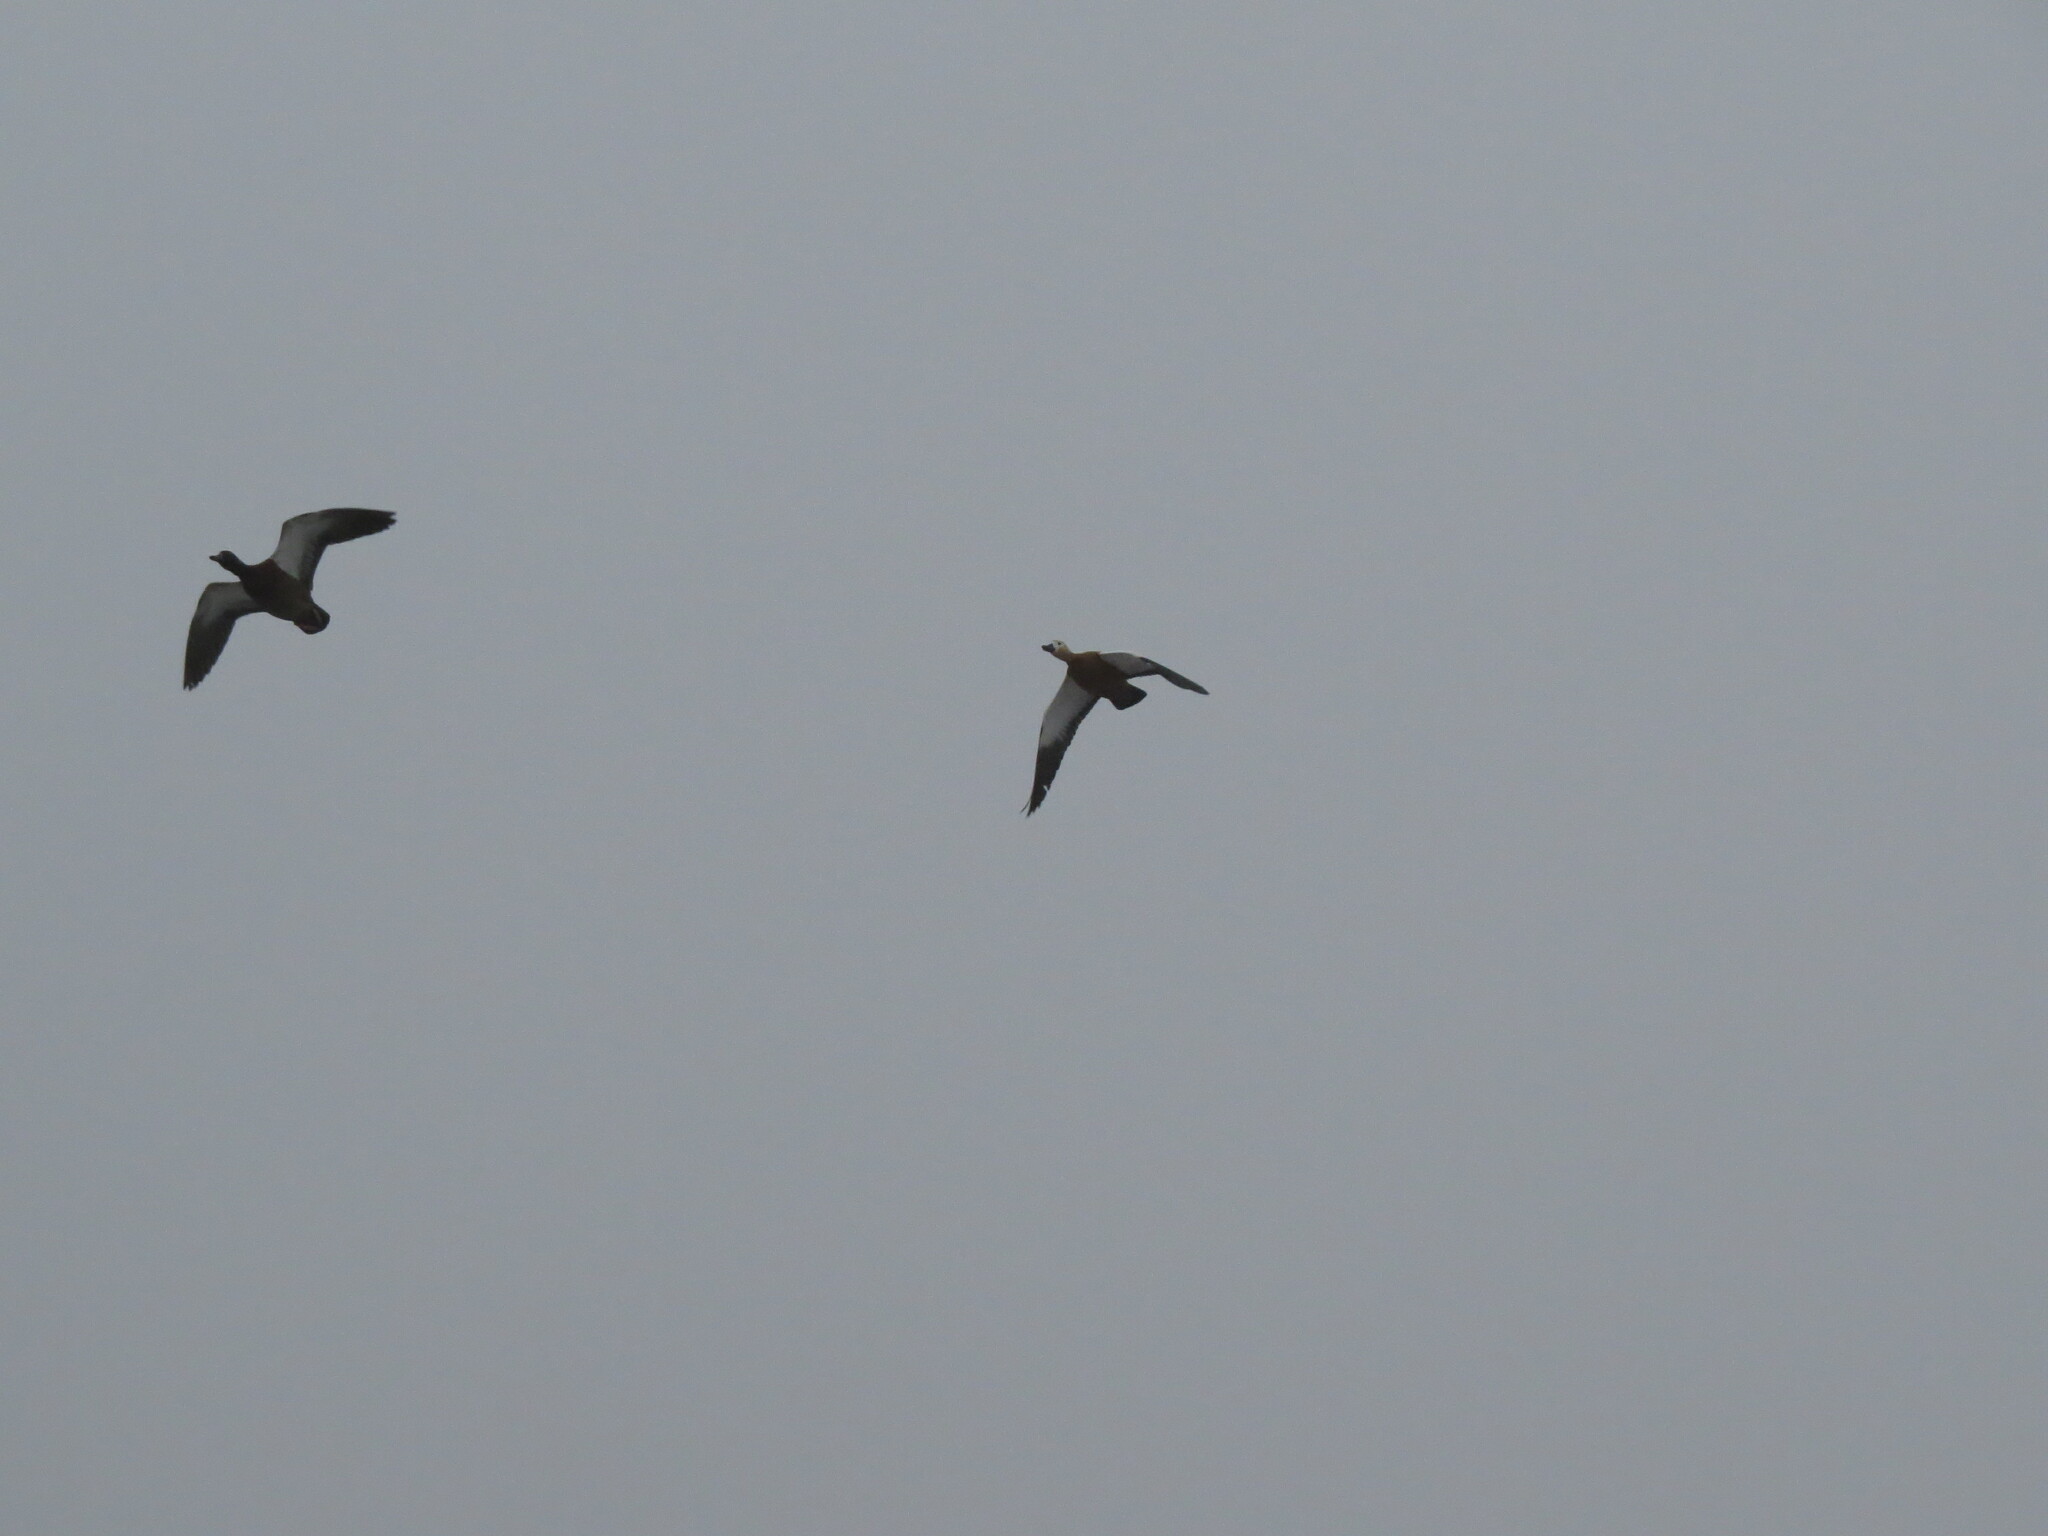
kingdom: Animalia
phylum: Chordata
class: Aves
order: Anseriformes
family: Anatidae
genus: Tadorna
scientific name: Tadorna ferruginea
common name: Ruddy shelduck
